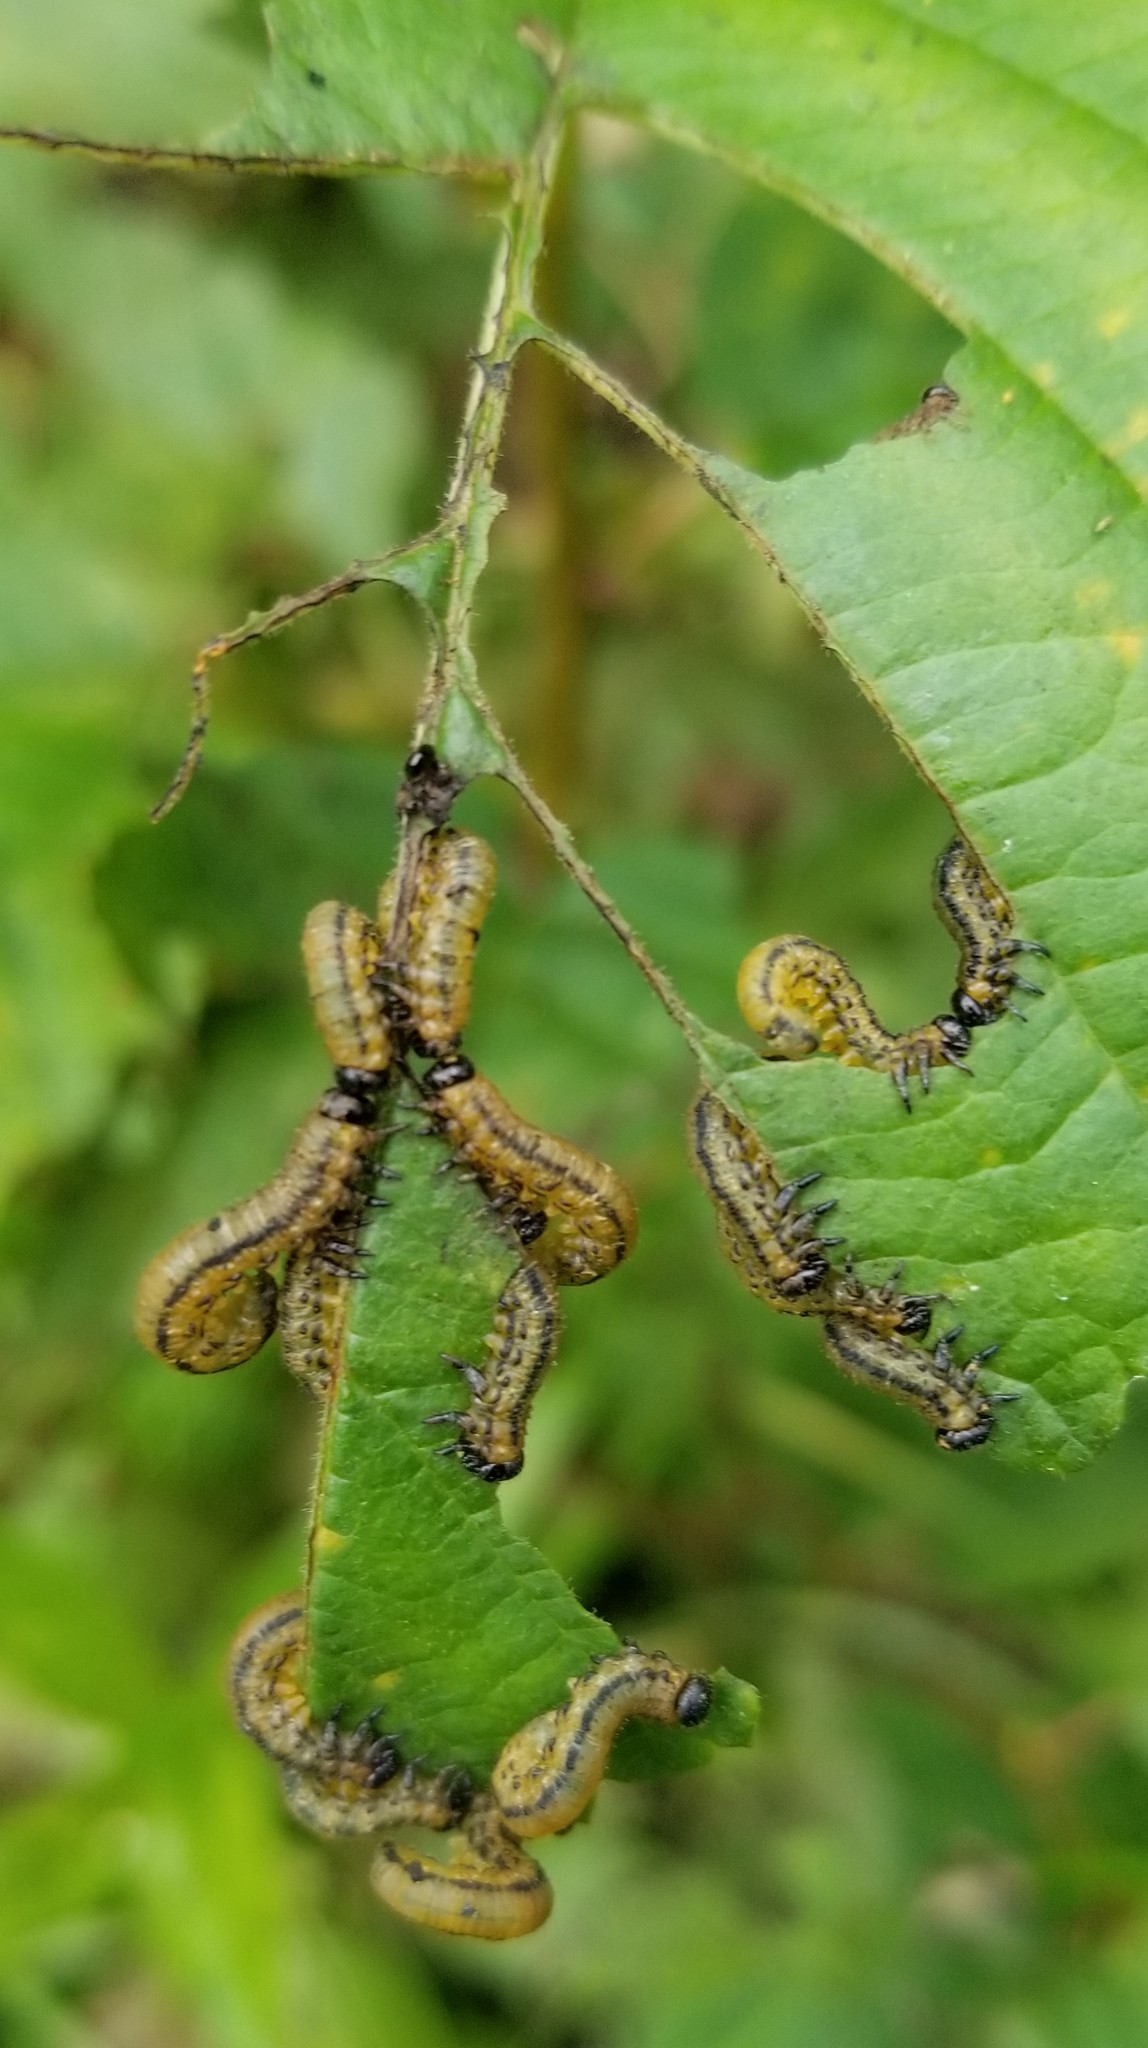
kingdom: Animalia
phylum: Arthropoda
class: Insecta
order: Hymenoptera
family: Tenthredinidae
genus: Hemichroa
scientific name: Hemichroa crocea
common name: Striped alder sawfly
